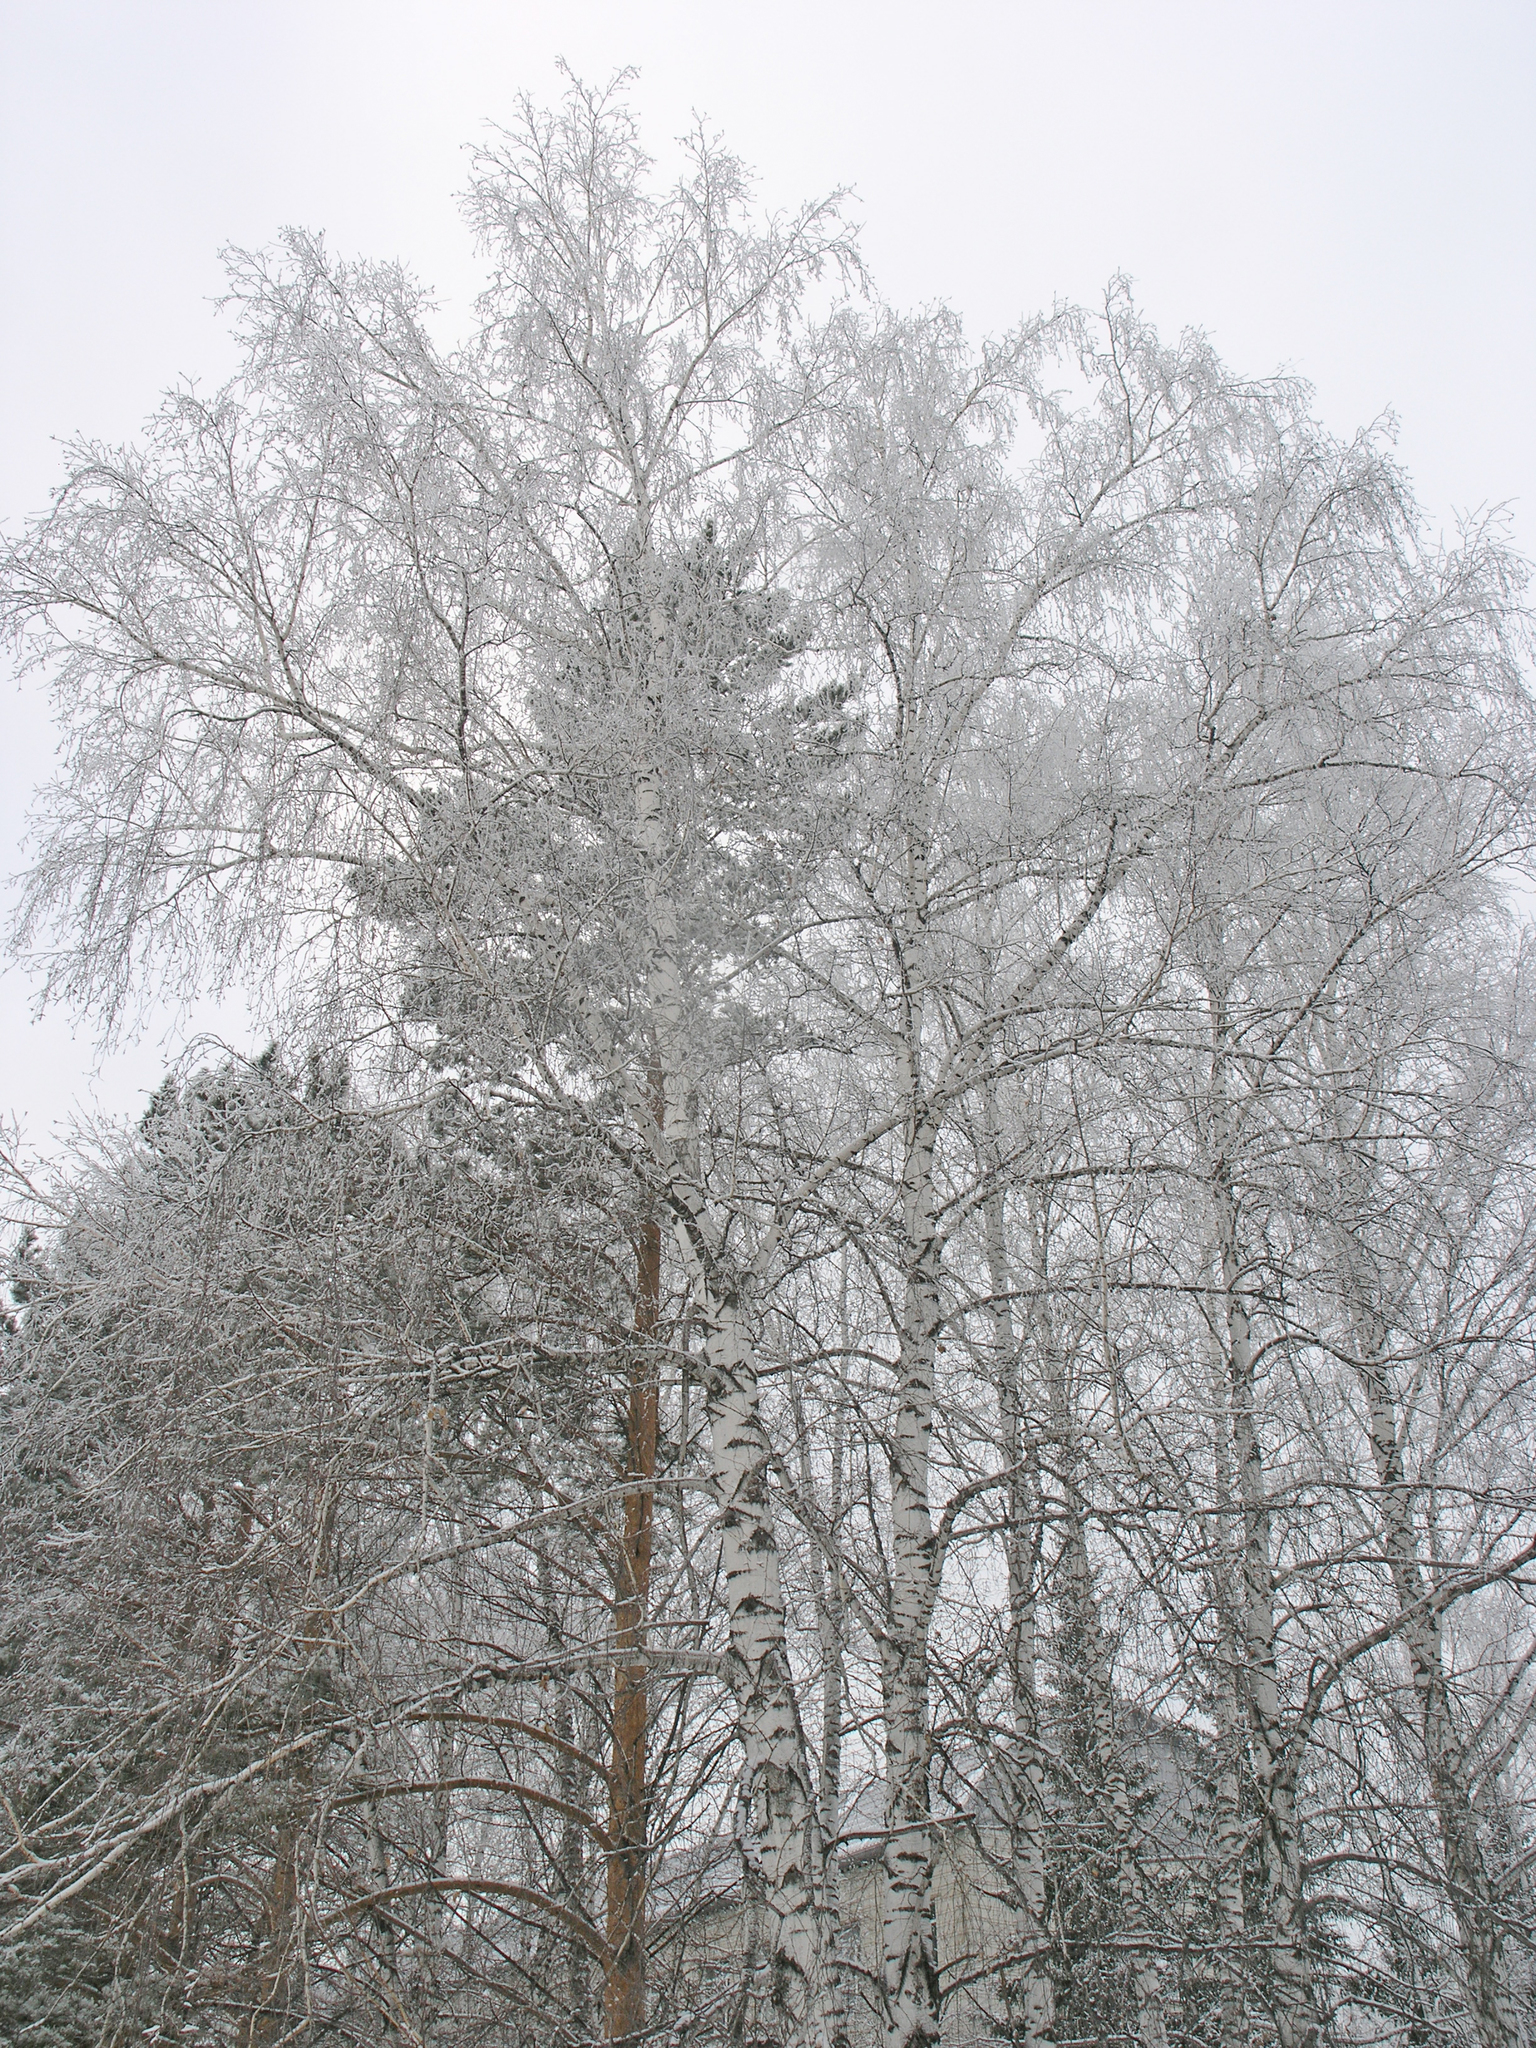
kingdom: Plantae
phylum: Tracheophyta
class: Magnoliopsida
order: Fagales
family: Betulaceae
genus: Betula
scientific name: Betula pendula
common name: Silver birch
